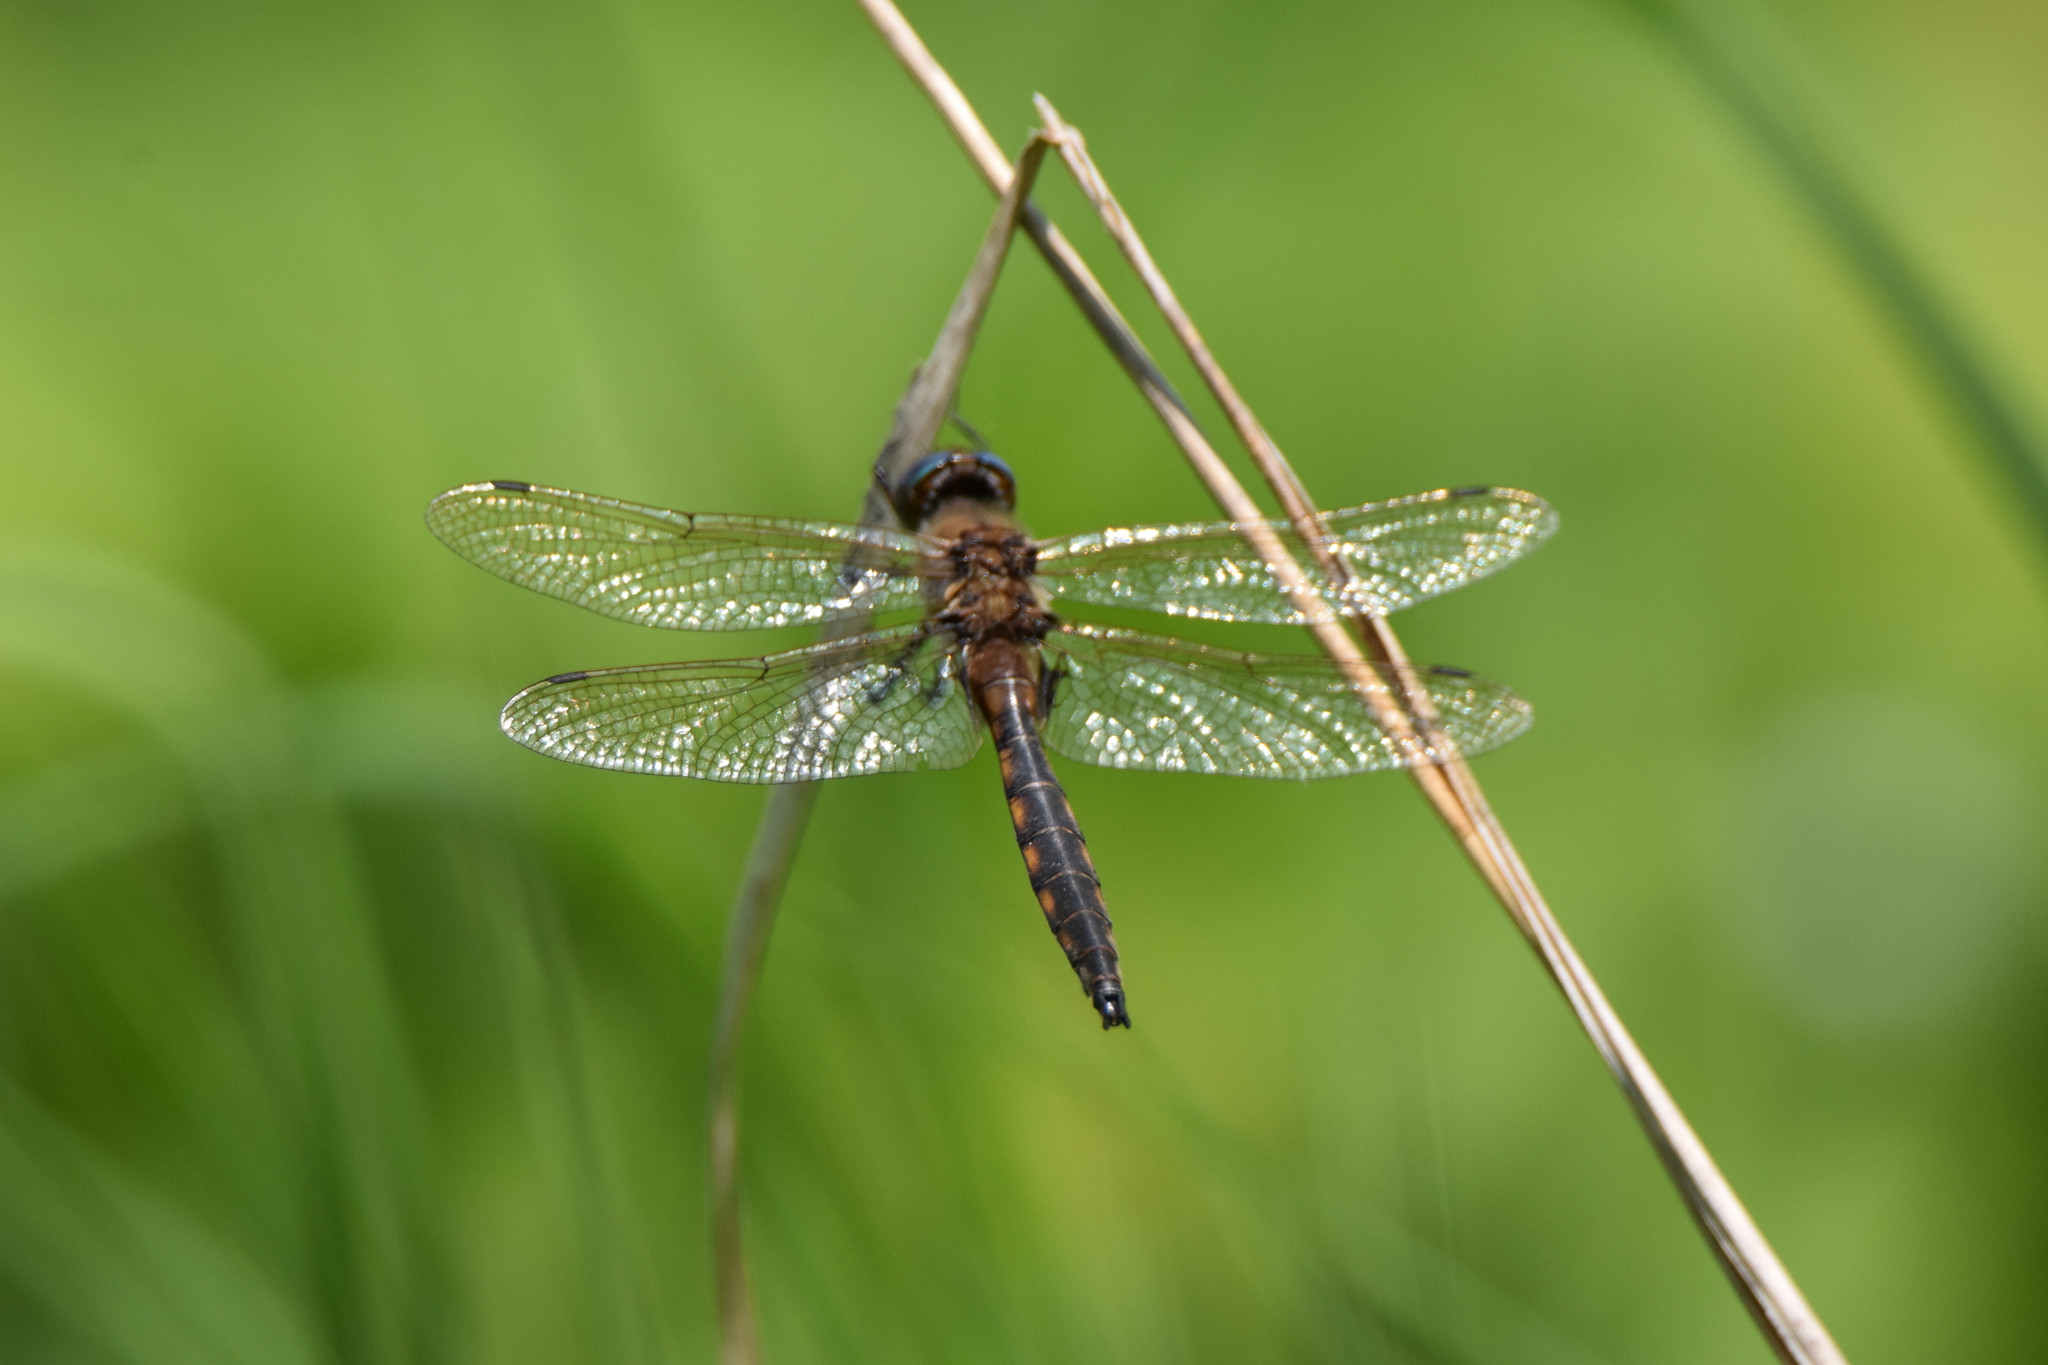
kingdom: Animalia
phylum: Arthropoda
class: Insecta
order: Odonata
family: Corduliidae
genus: Epitheca
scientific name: Epitheca canis
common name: Beaverpond baskettail
